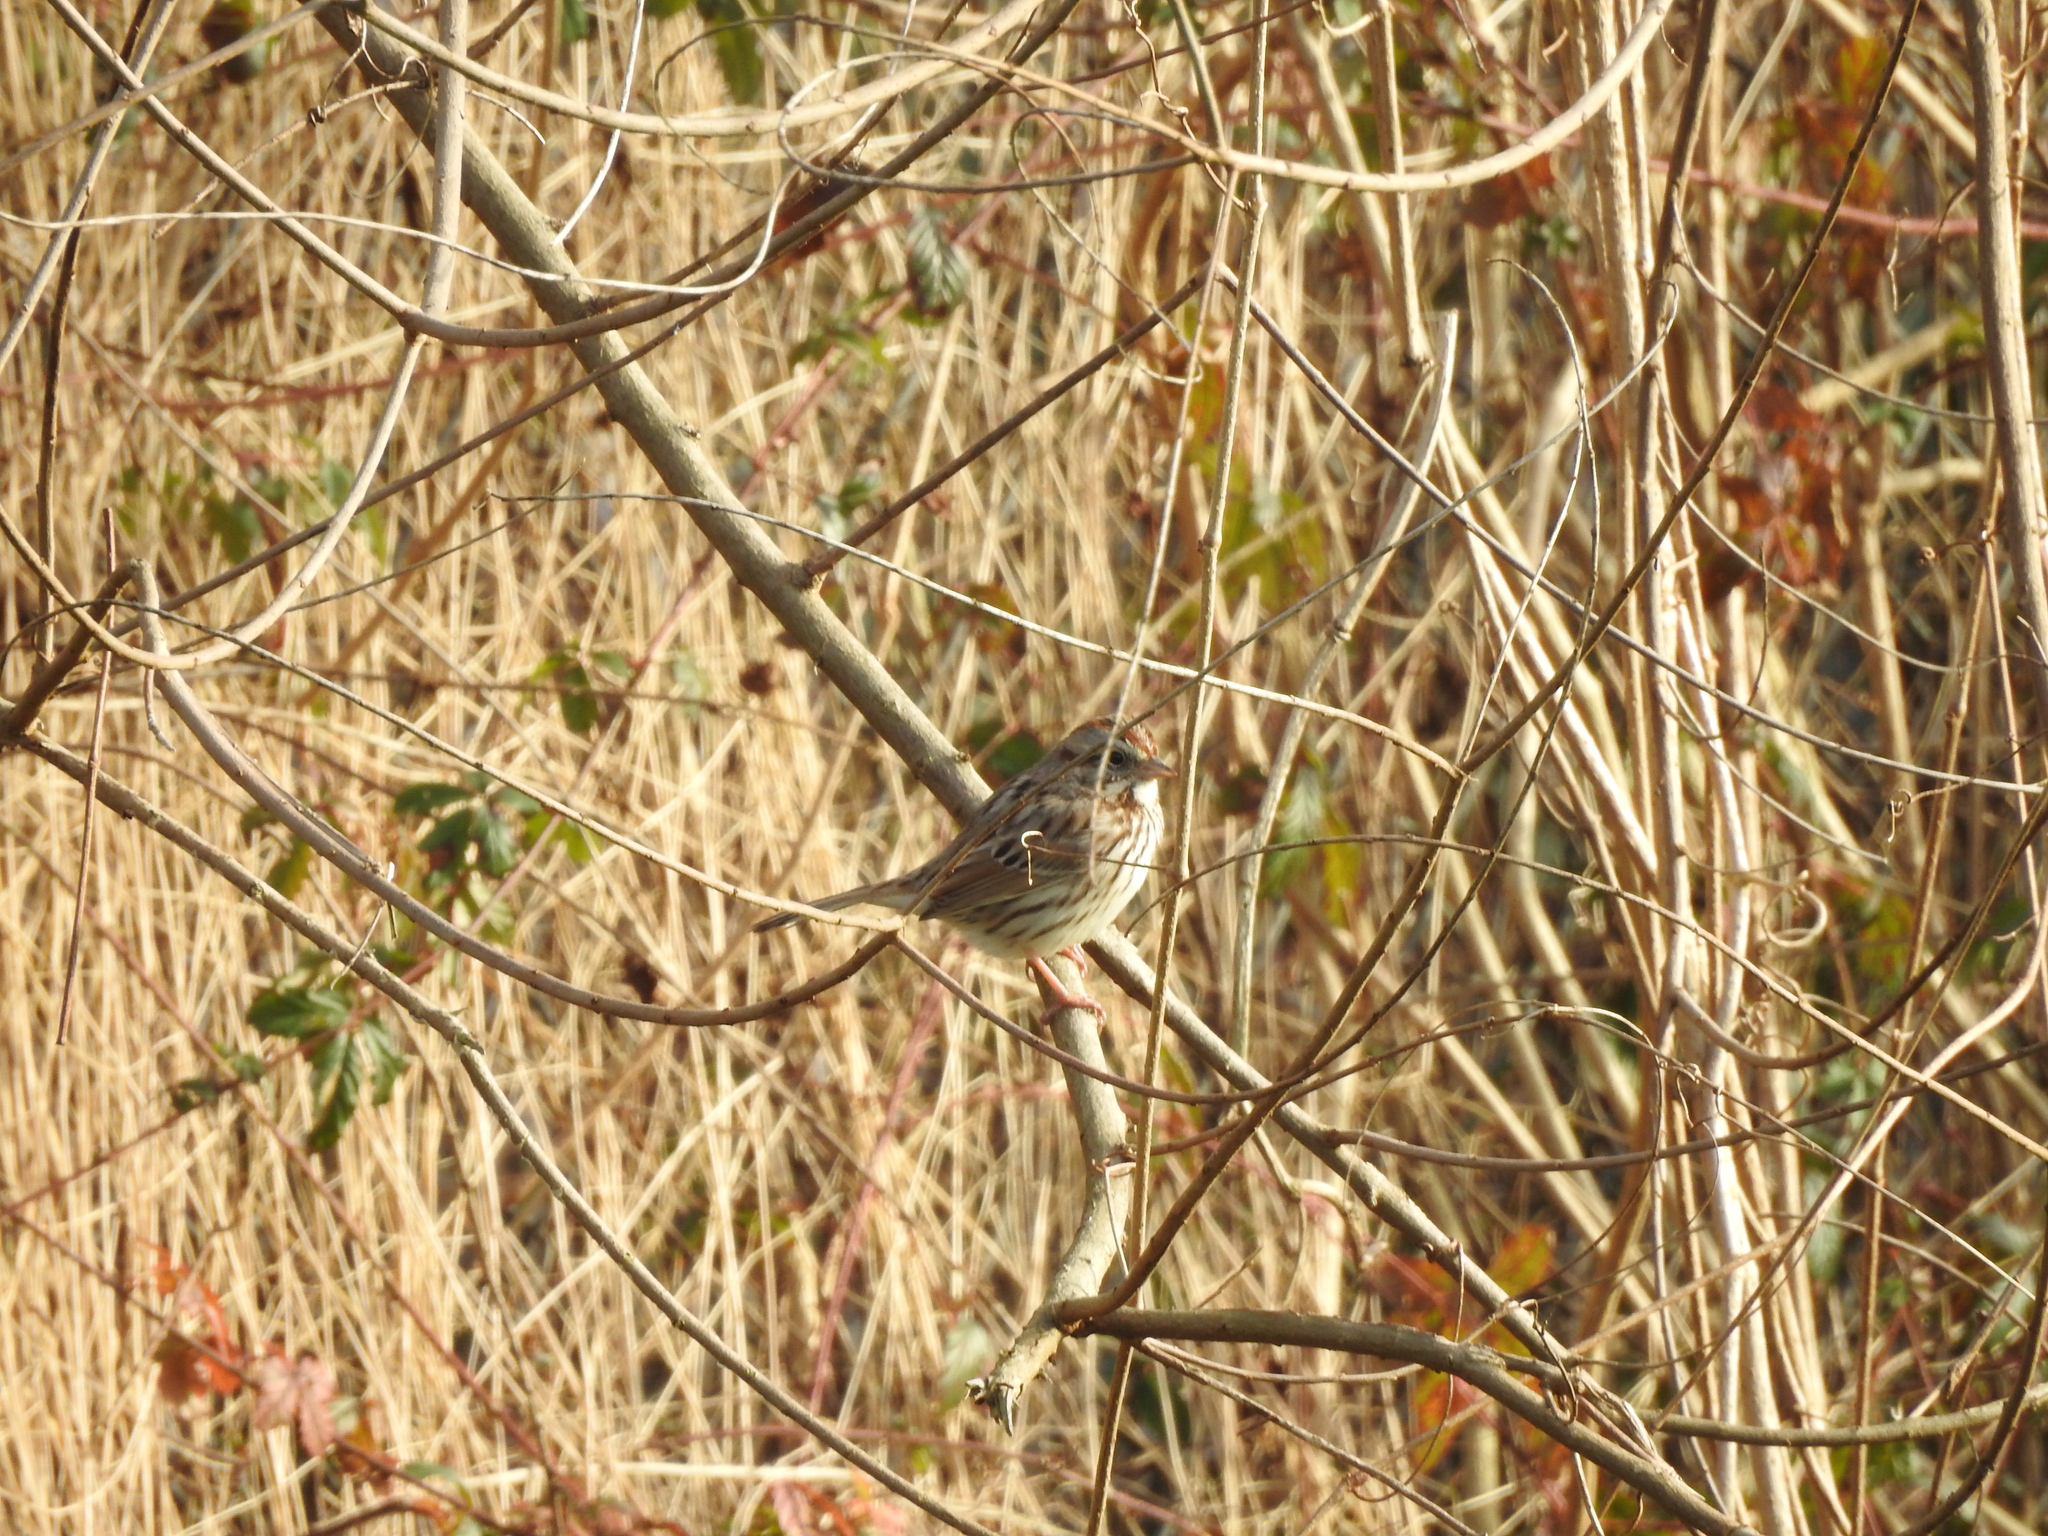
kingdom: Animalia
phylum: Chordata
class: Aves
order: Passeriformes
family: Passerellidae
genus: Melospiza
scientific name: Melospiza melodia
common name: Song sparrow
